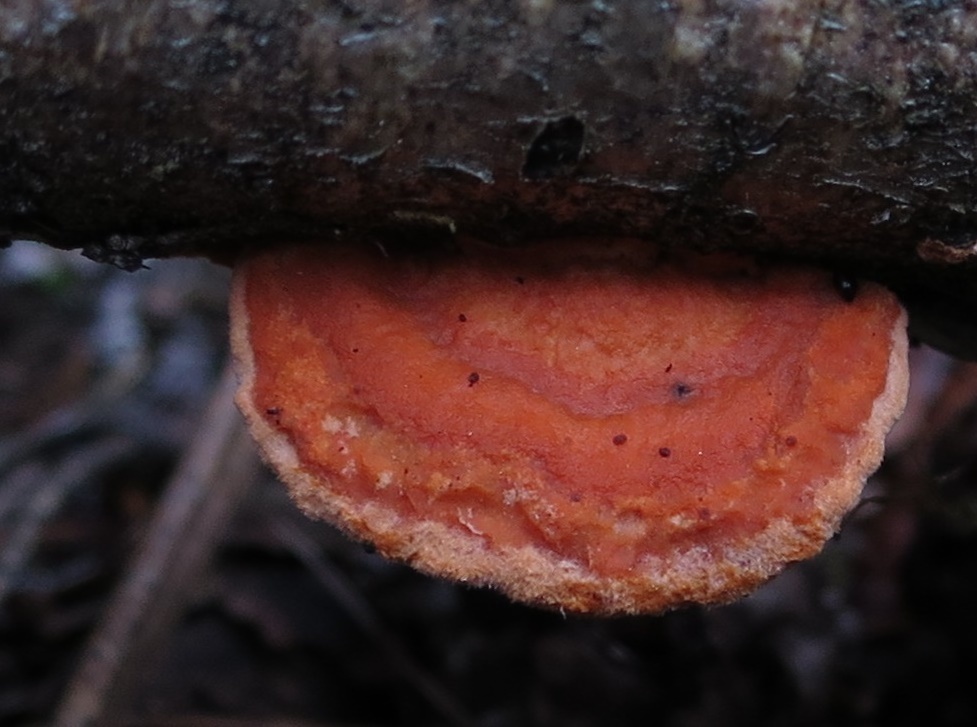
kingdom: Fungi
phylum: Basidiomycota
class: Agaricomycetes
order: Polyporales
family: Polyporaceae
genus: Trametes
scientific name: Trametes coccinea
